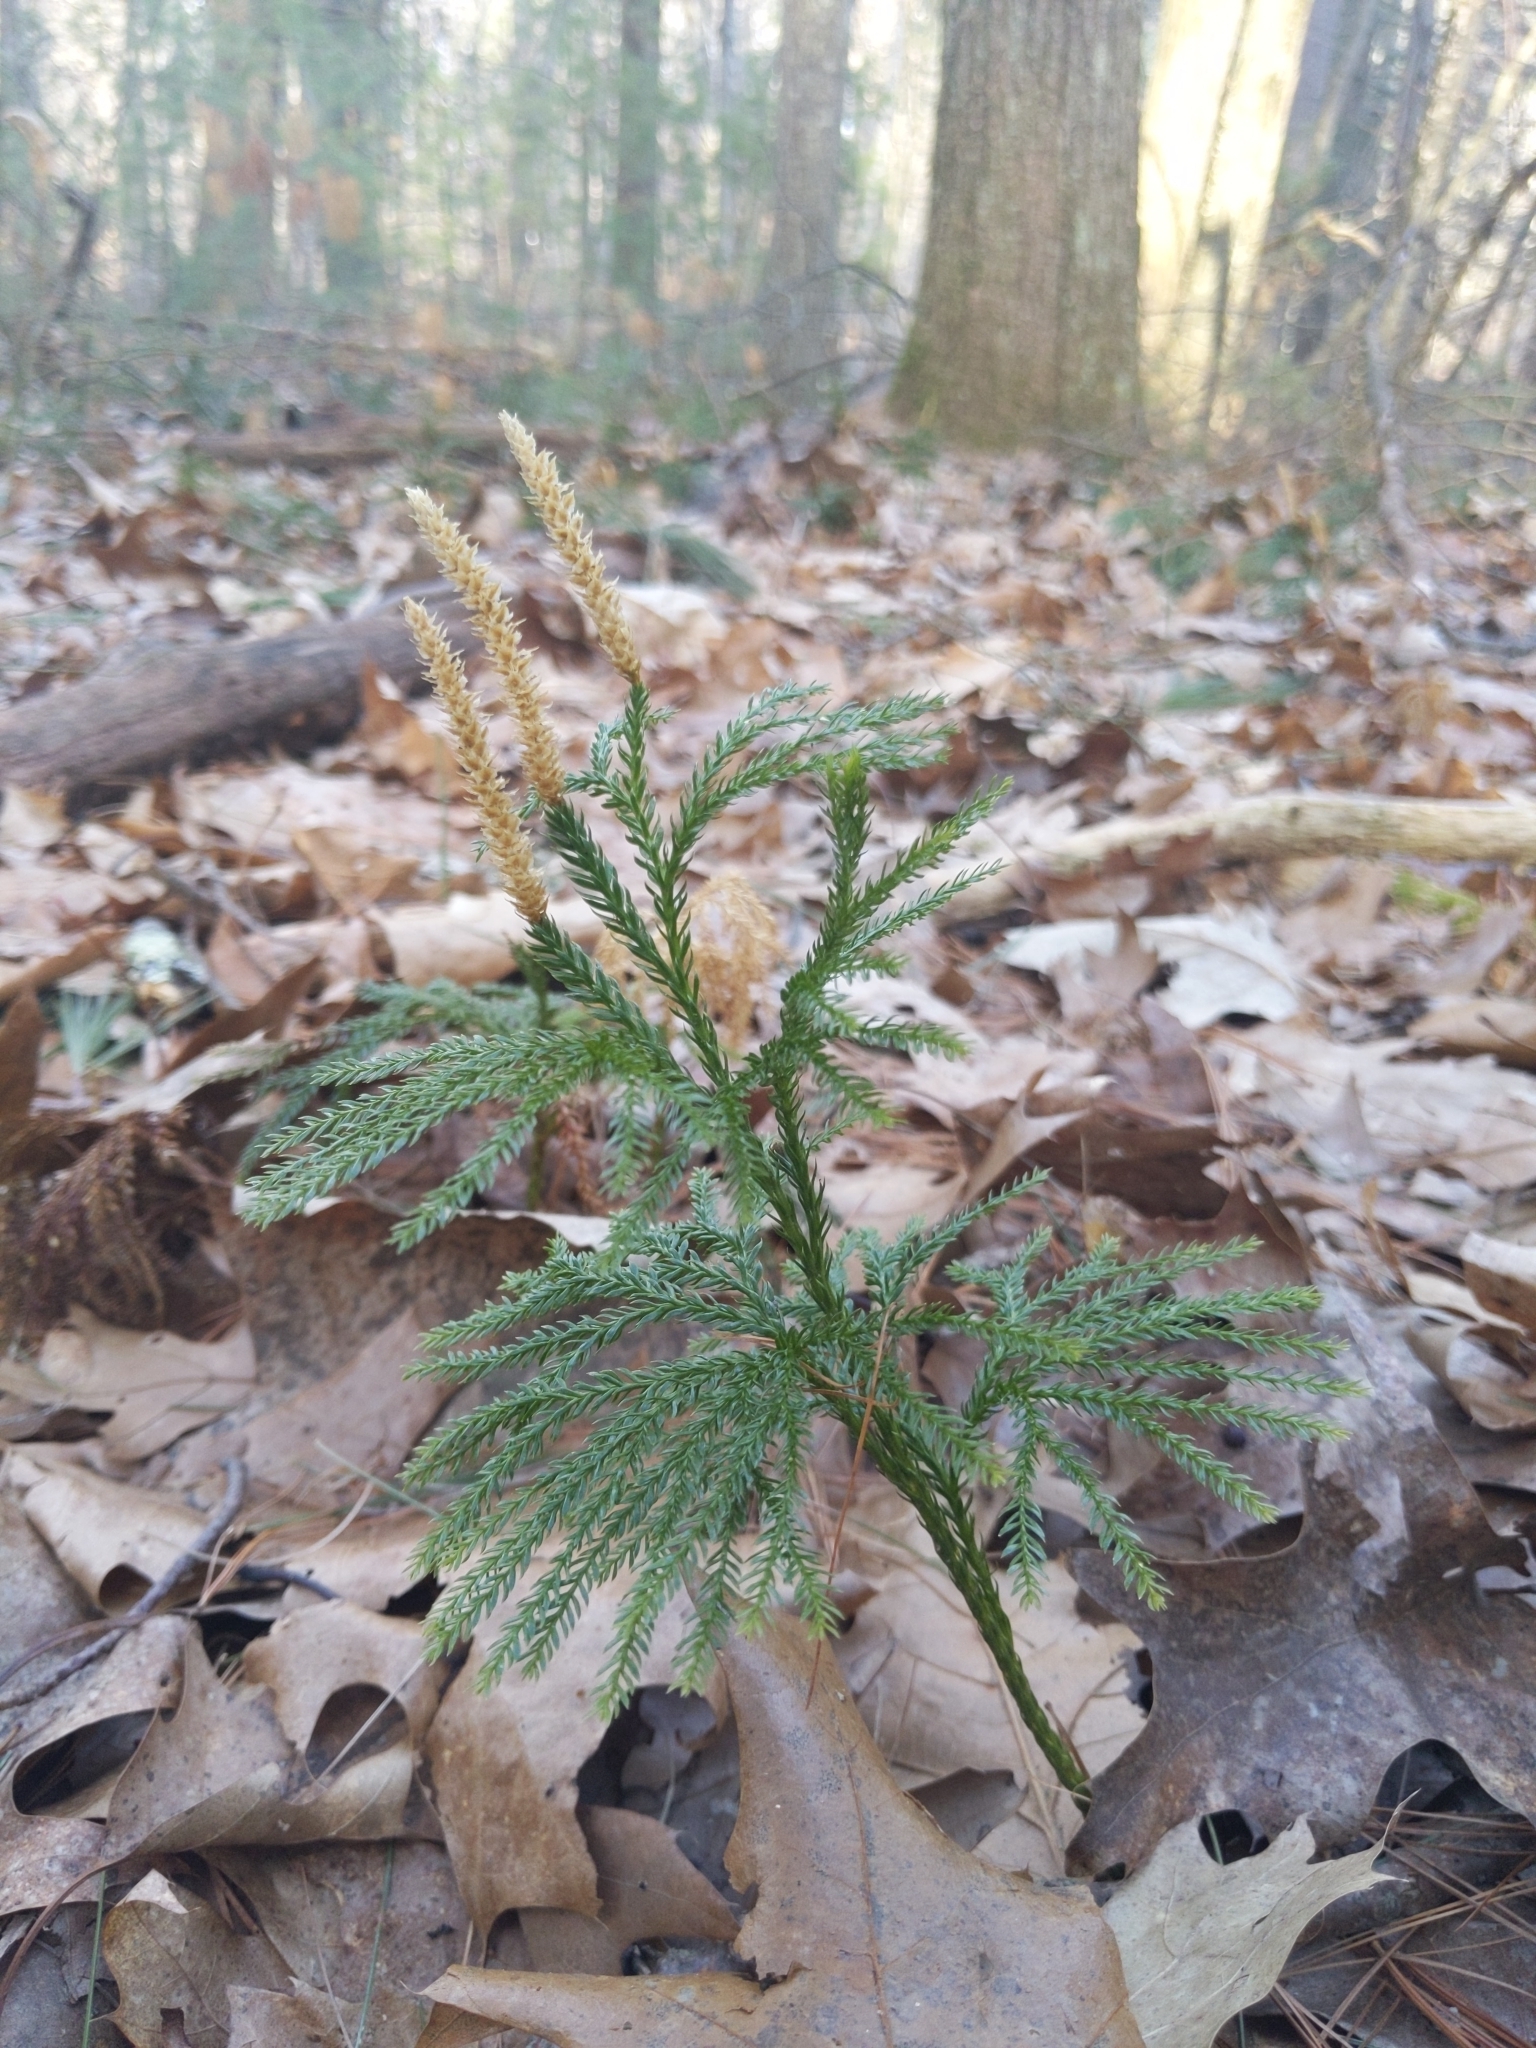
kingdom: Plantae
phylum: Tracheophyta
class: Lycopodiopsida
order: Lycopodiales
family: Lycopodiaceae
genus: Dendrolycopodium
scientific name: Dendrolycopodium obscurum
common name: Common ground-pine
